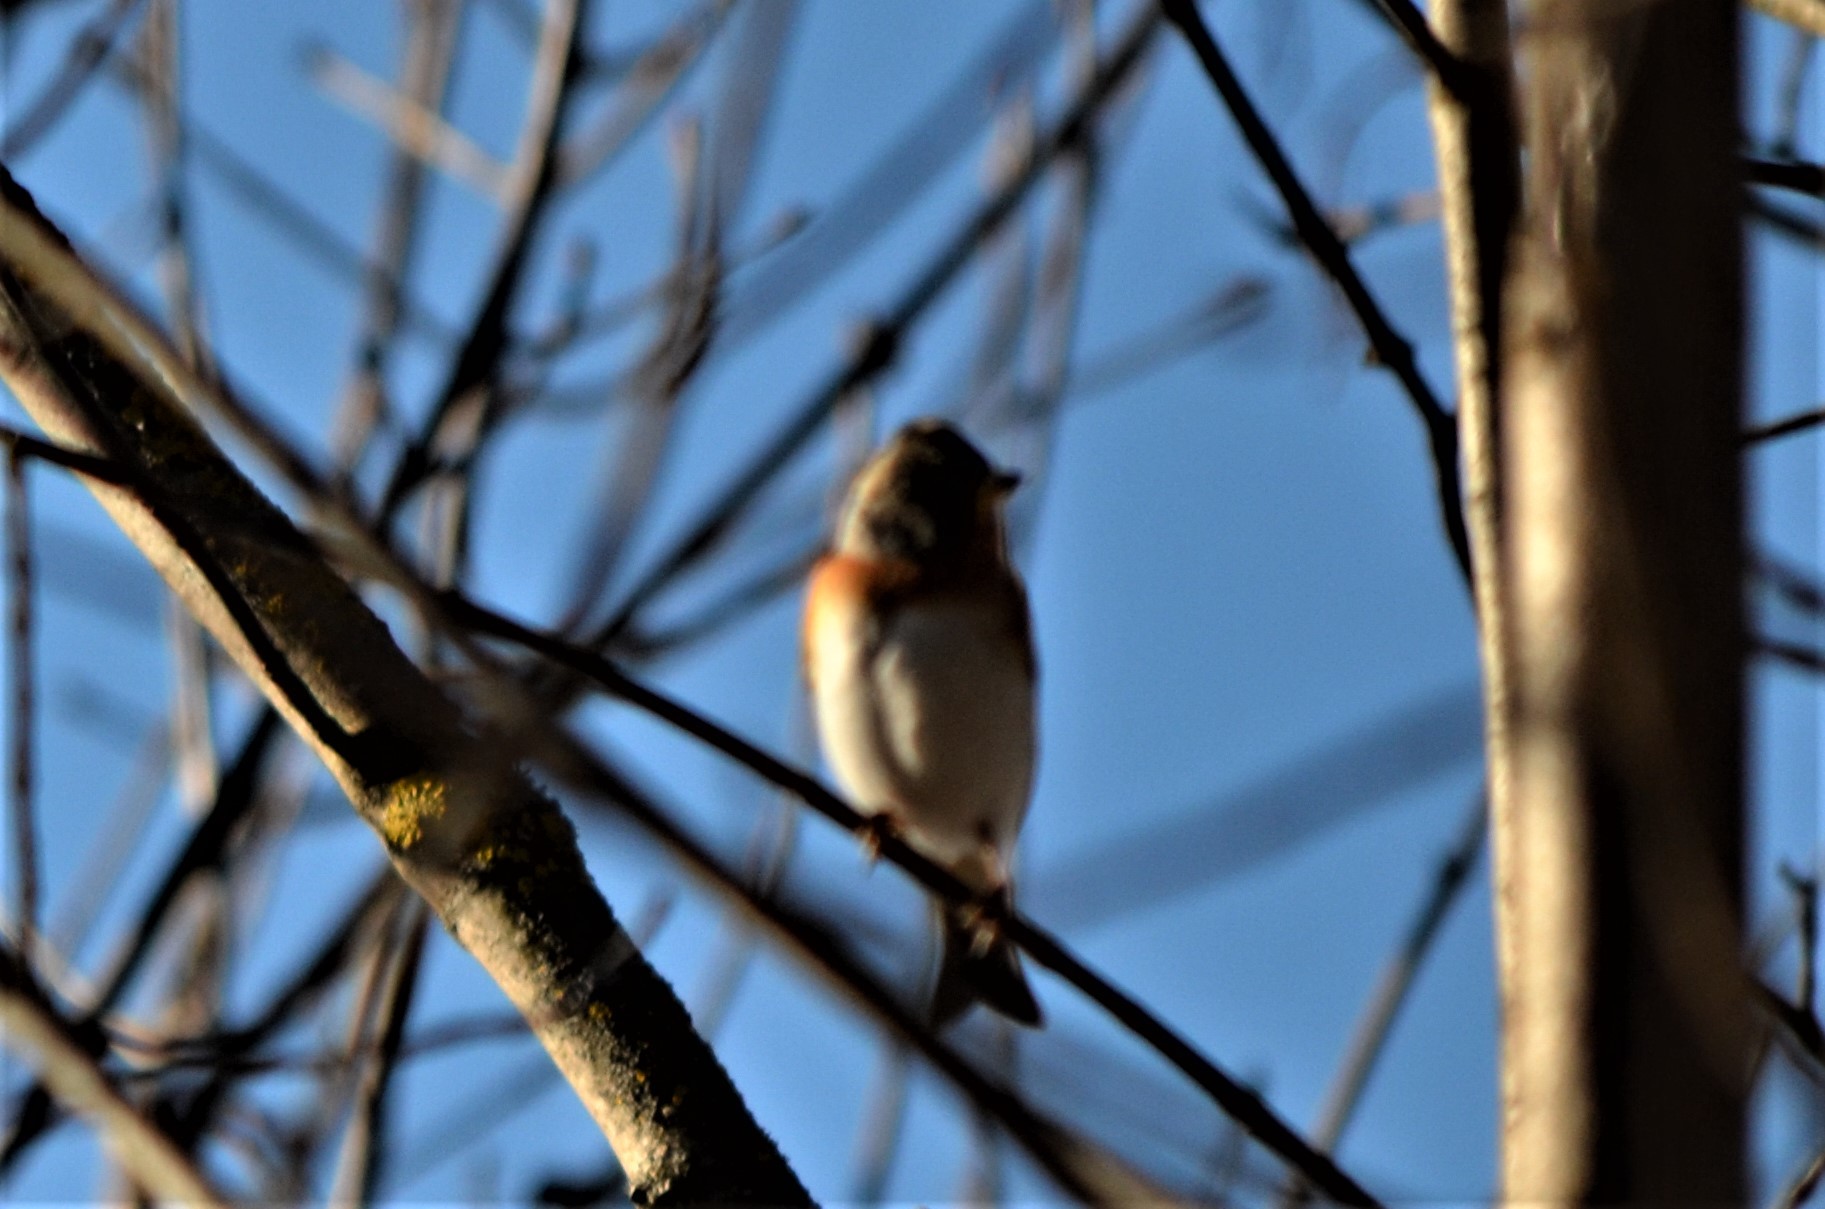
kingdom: Animalia
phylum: Chordata
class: Aves
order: Passeriformes
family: Fringillidae
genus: Fringilla
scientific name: Fringilla montifringilla
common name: Brambling
